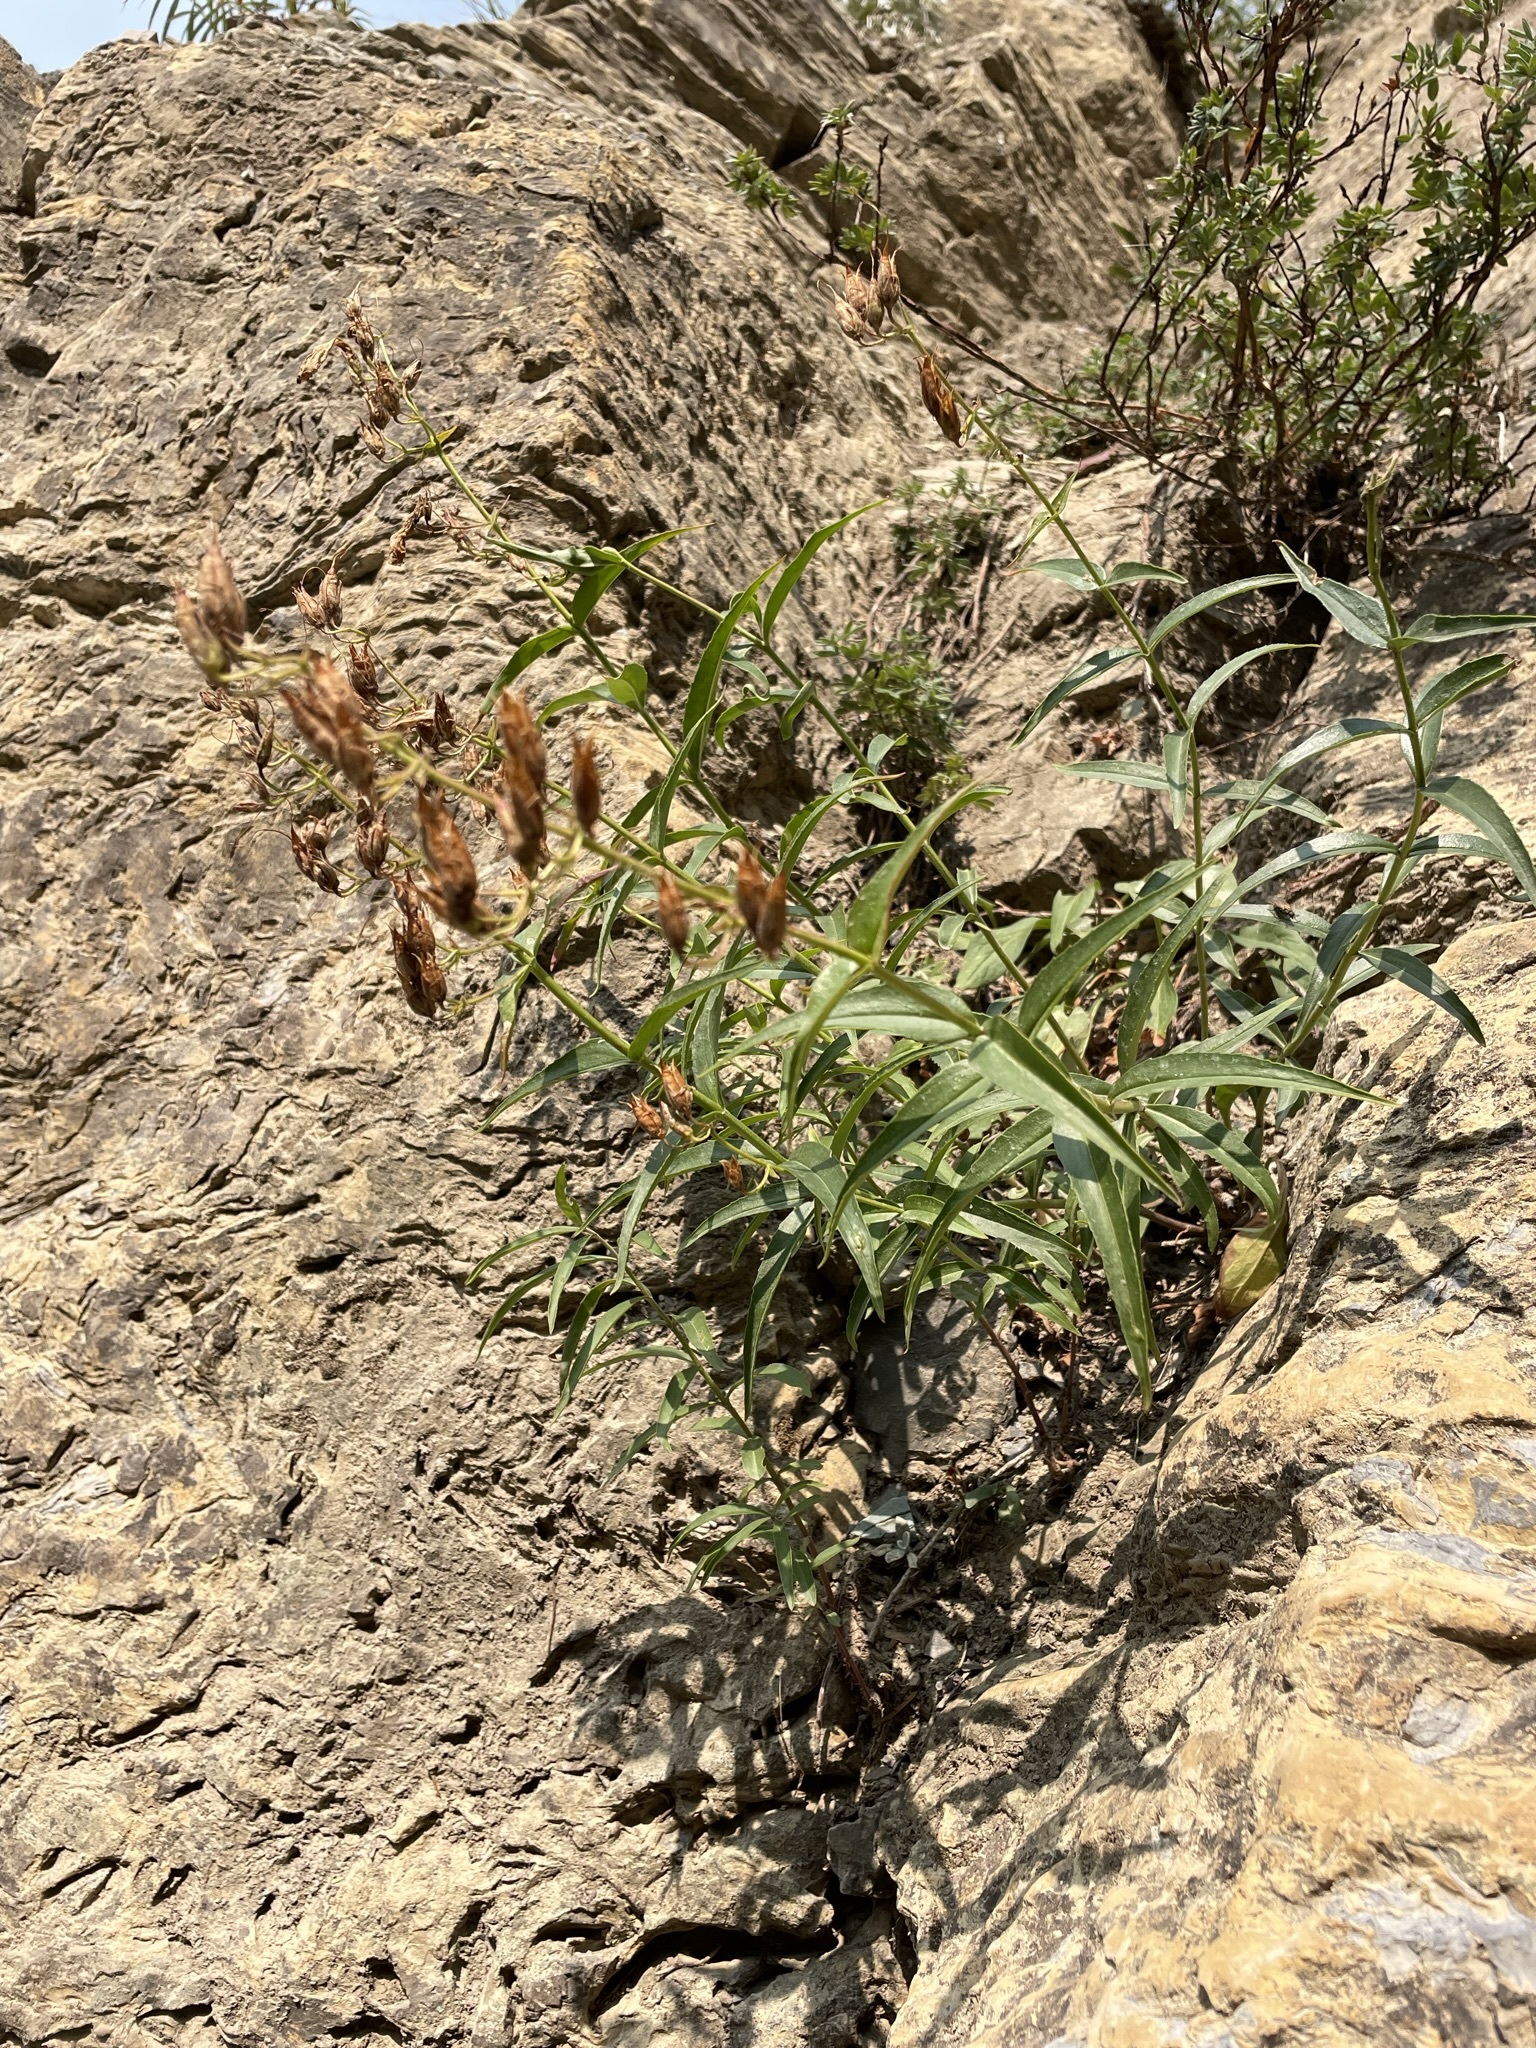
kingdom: Plantae
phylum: Tracheophyta
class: Magnoliopsida
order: Lamiales
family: Plantaginaceae
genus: Penstemon
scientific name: Penstemon lyalli
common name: Lyall's beardtongue
